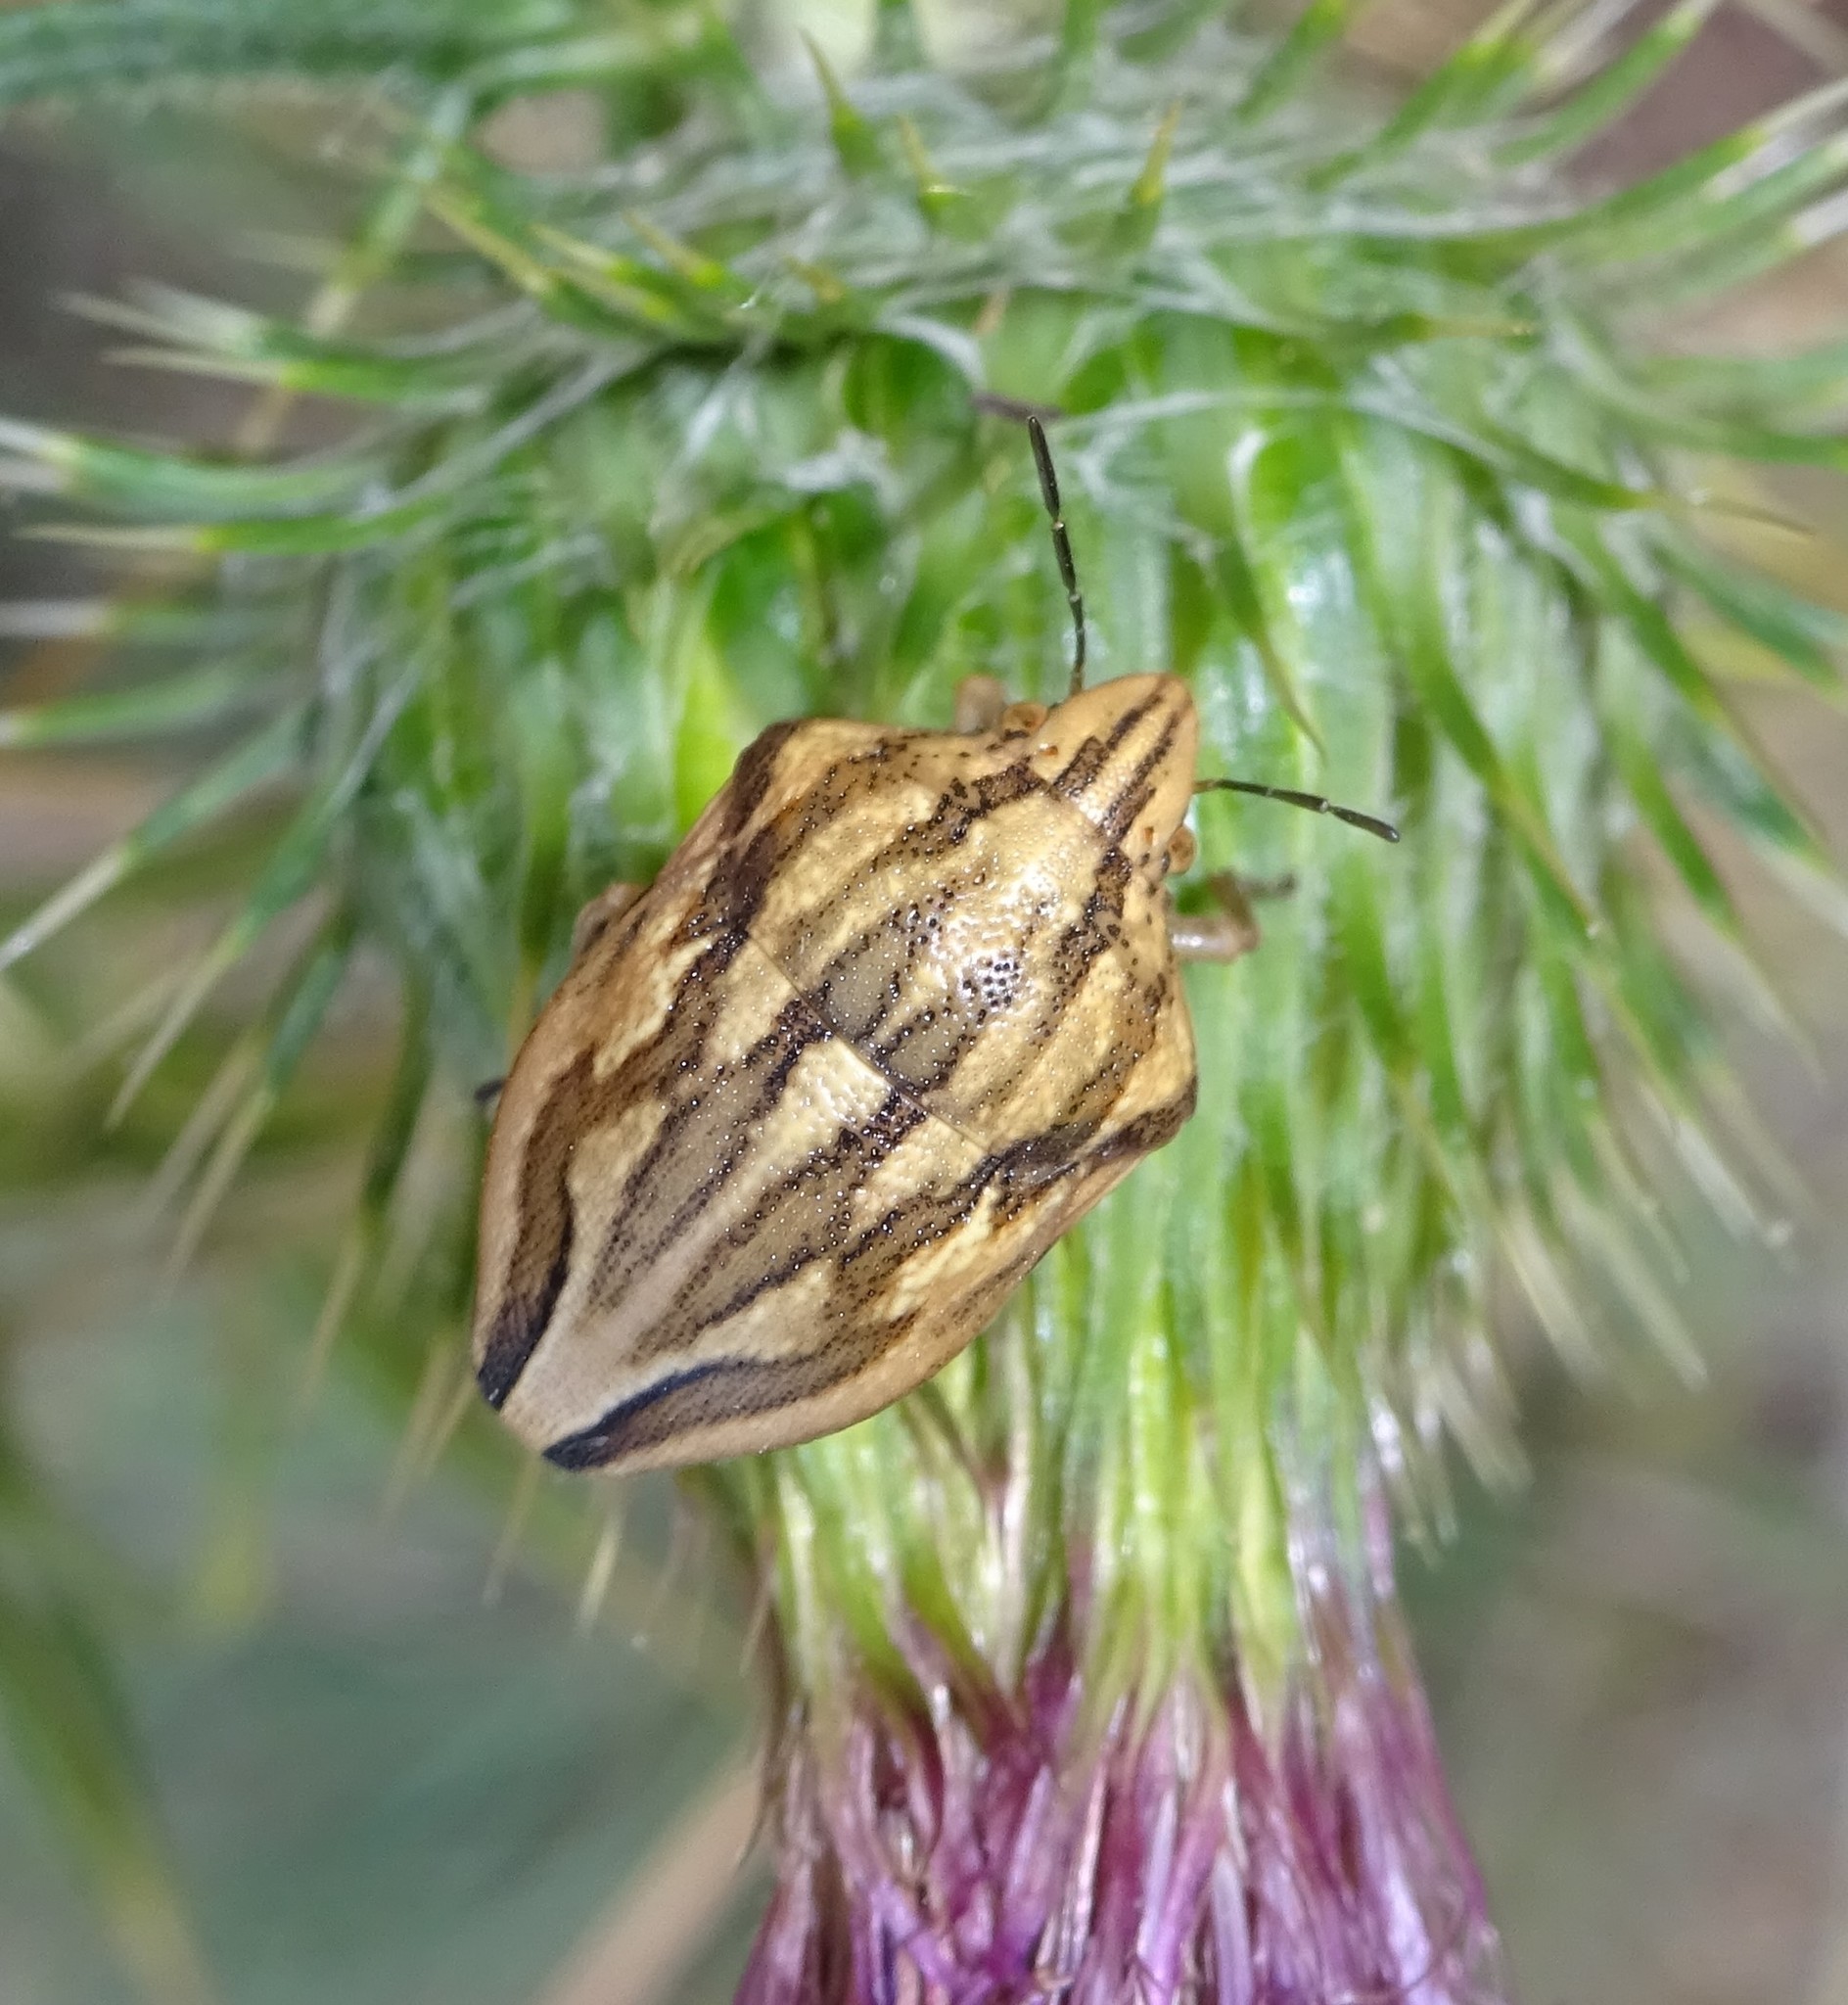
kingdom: Animalia
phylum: Arthropoda
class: Insecta
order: Hemiptera
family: Scutelleridae
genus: Odontotarsus
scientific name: Odontotarsus purpureolineatus
